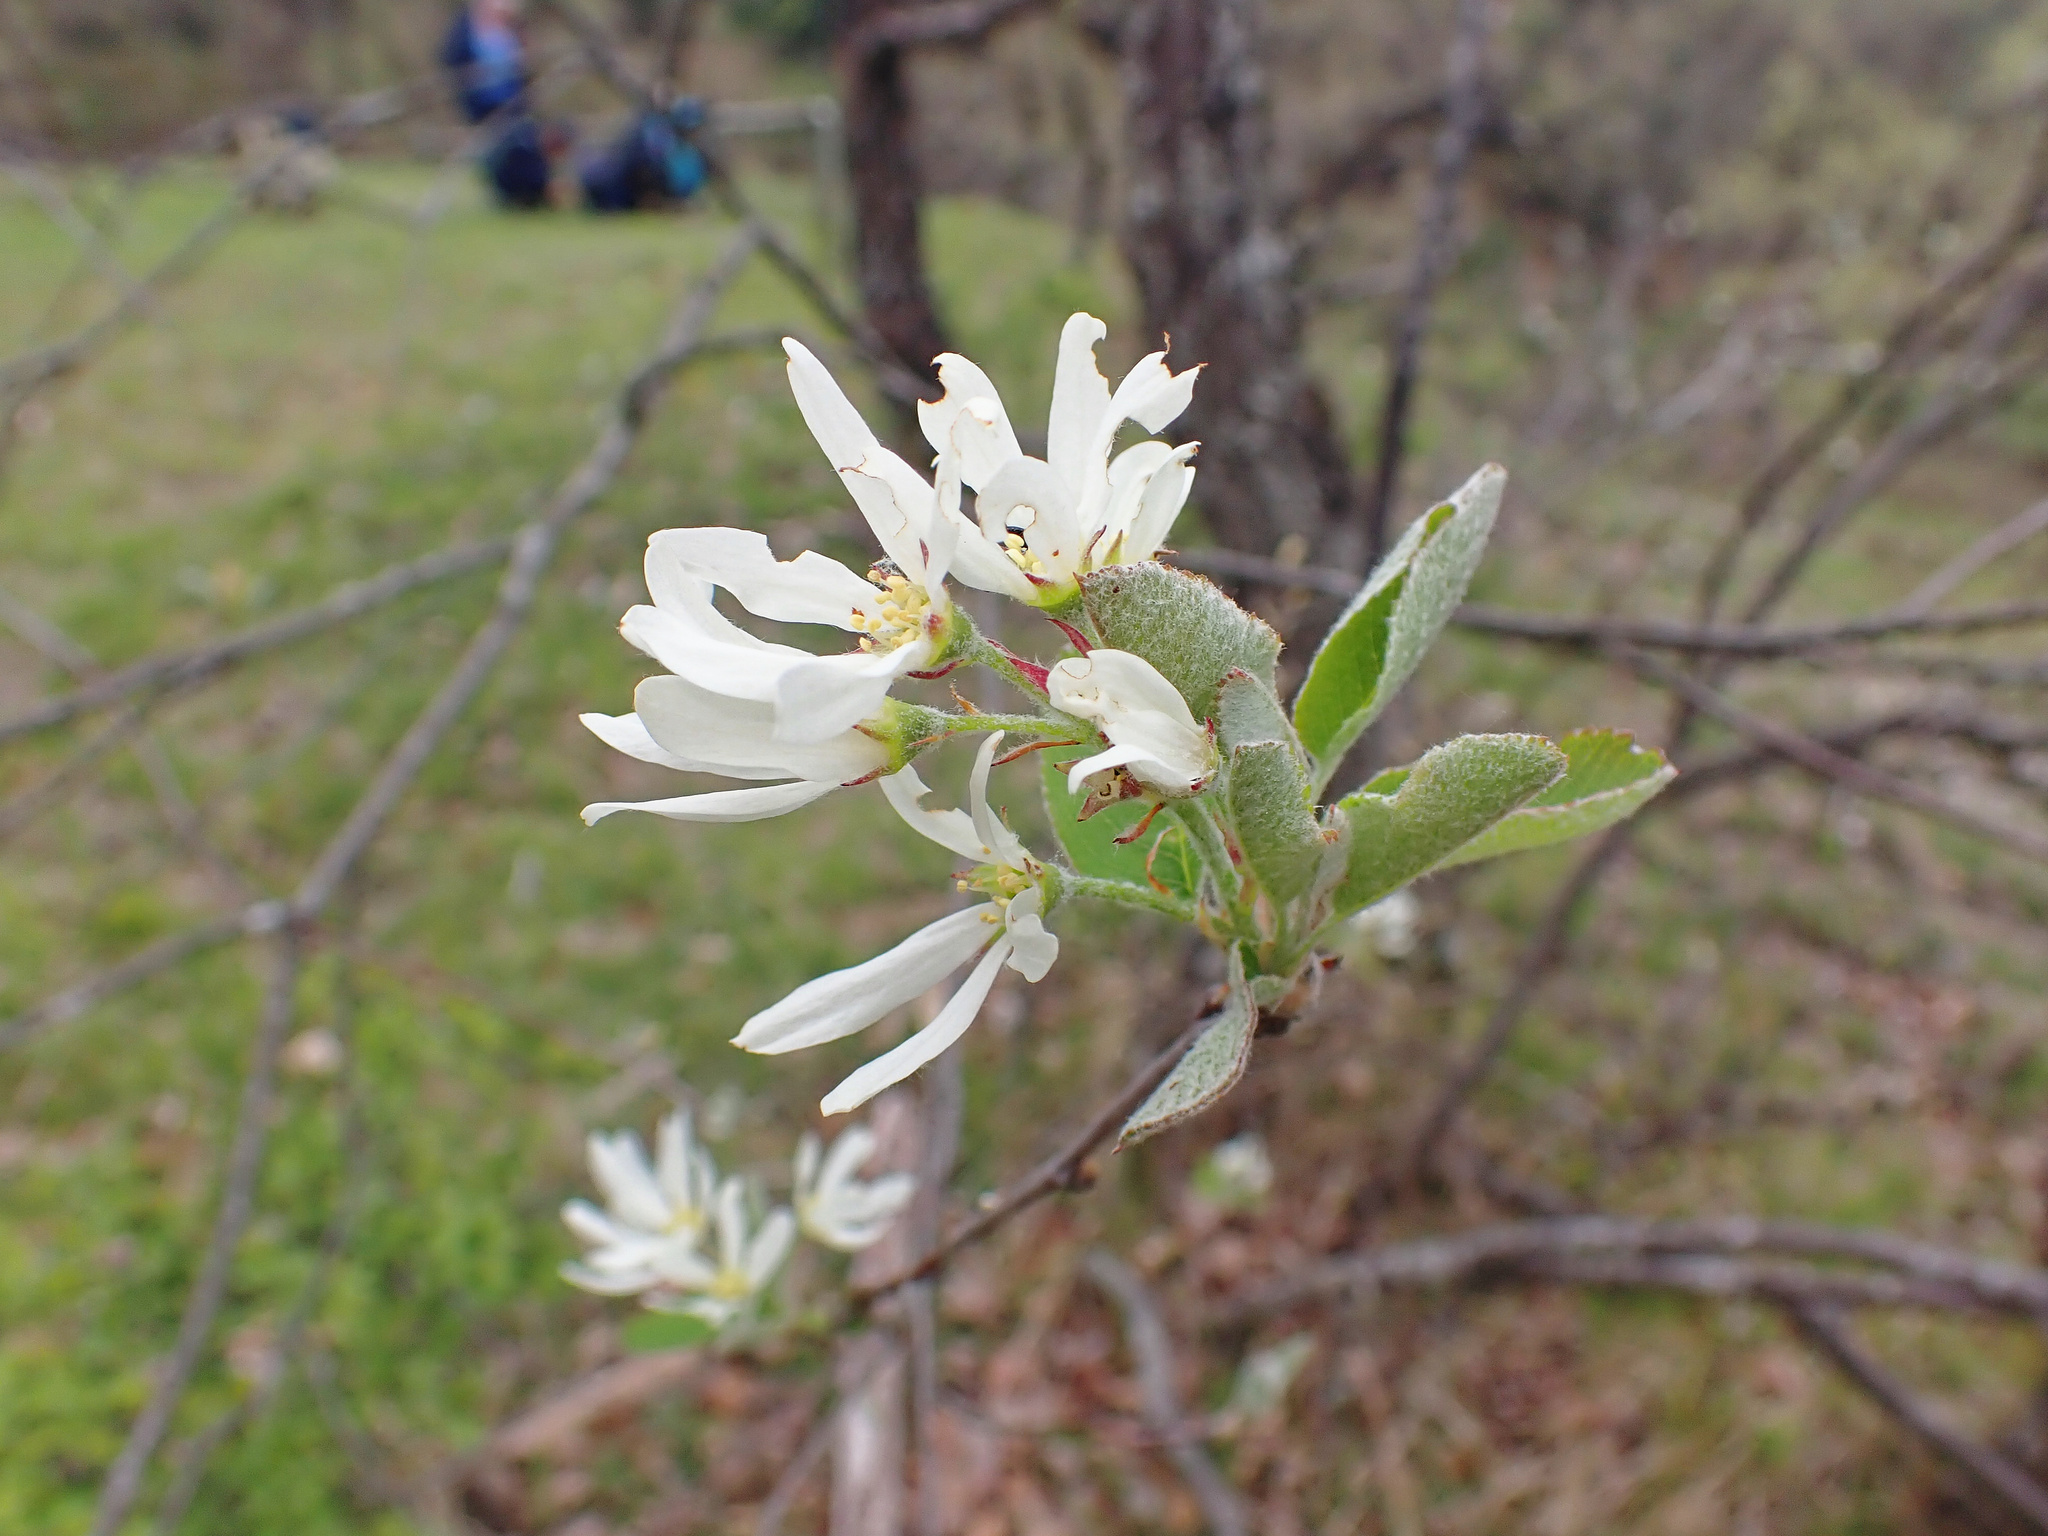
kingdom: Plantae
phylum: Tracheophyta
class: Magnoliopsida
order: Rosales
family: Rosaceae
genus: Amelanchier
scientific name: Amelanchier ovalis
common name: Serviceberry
